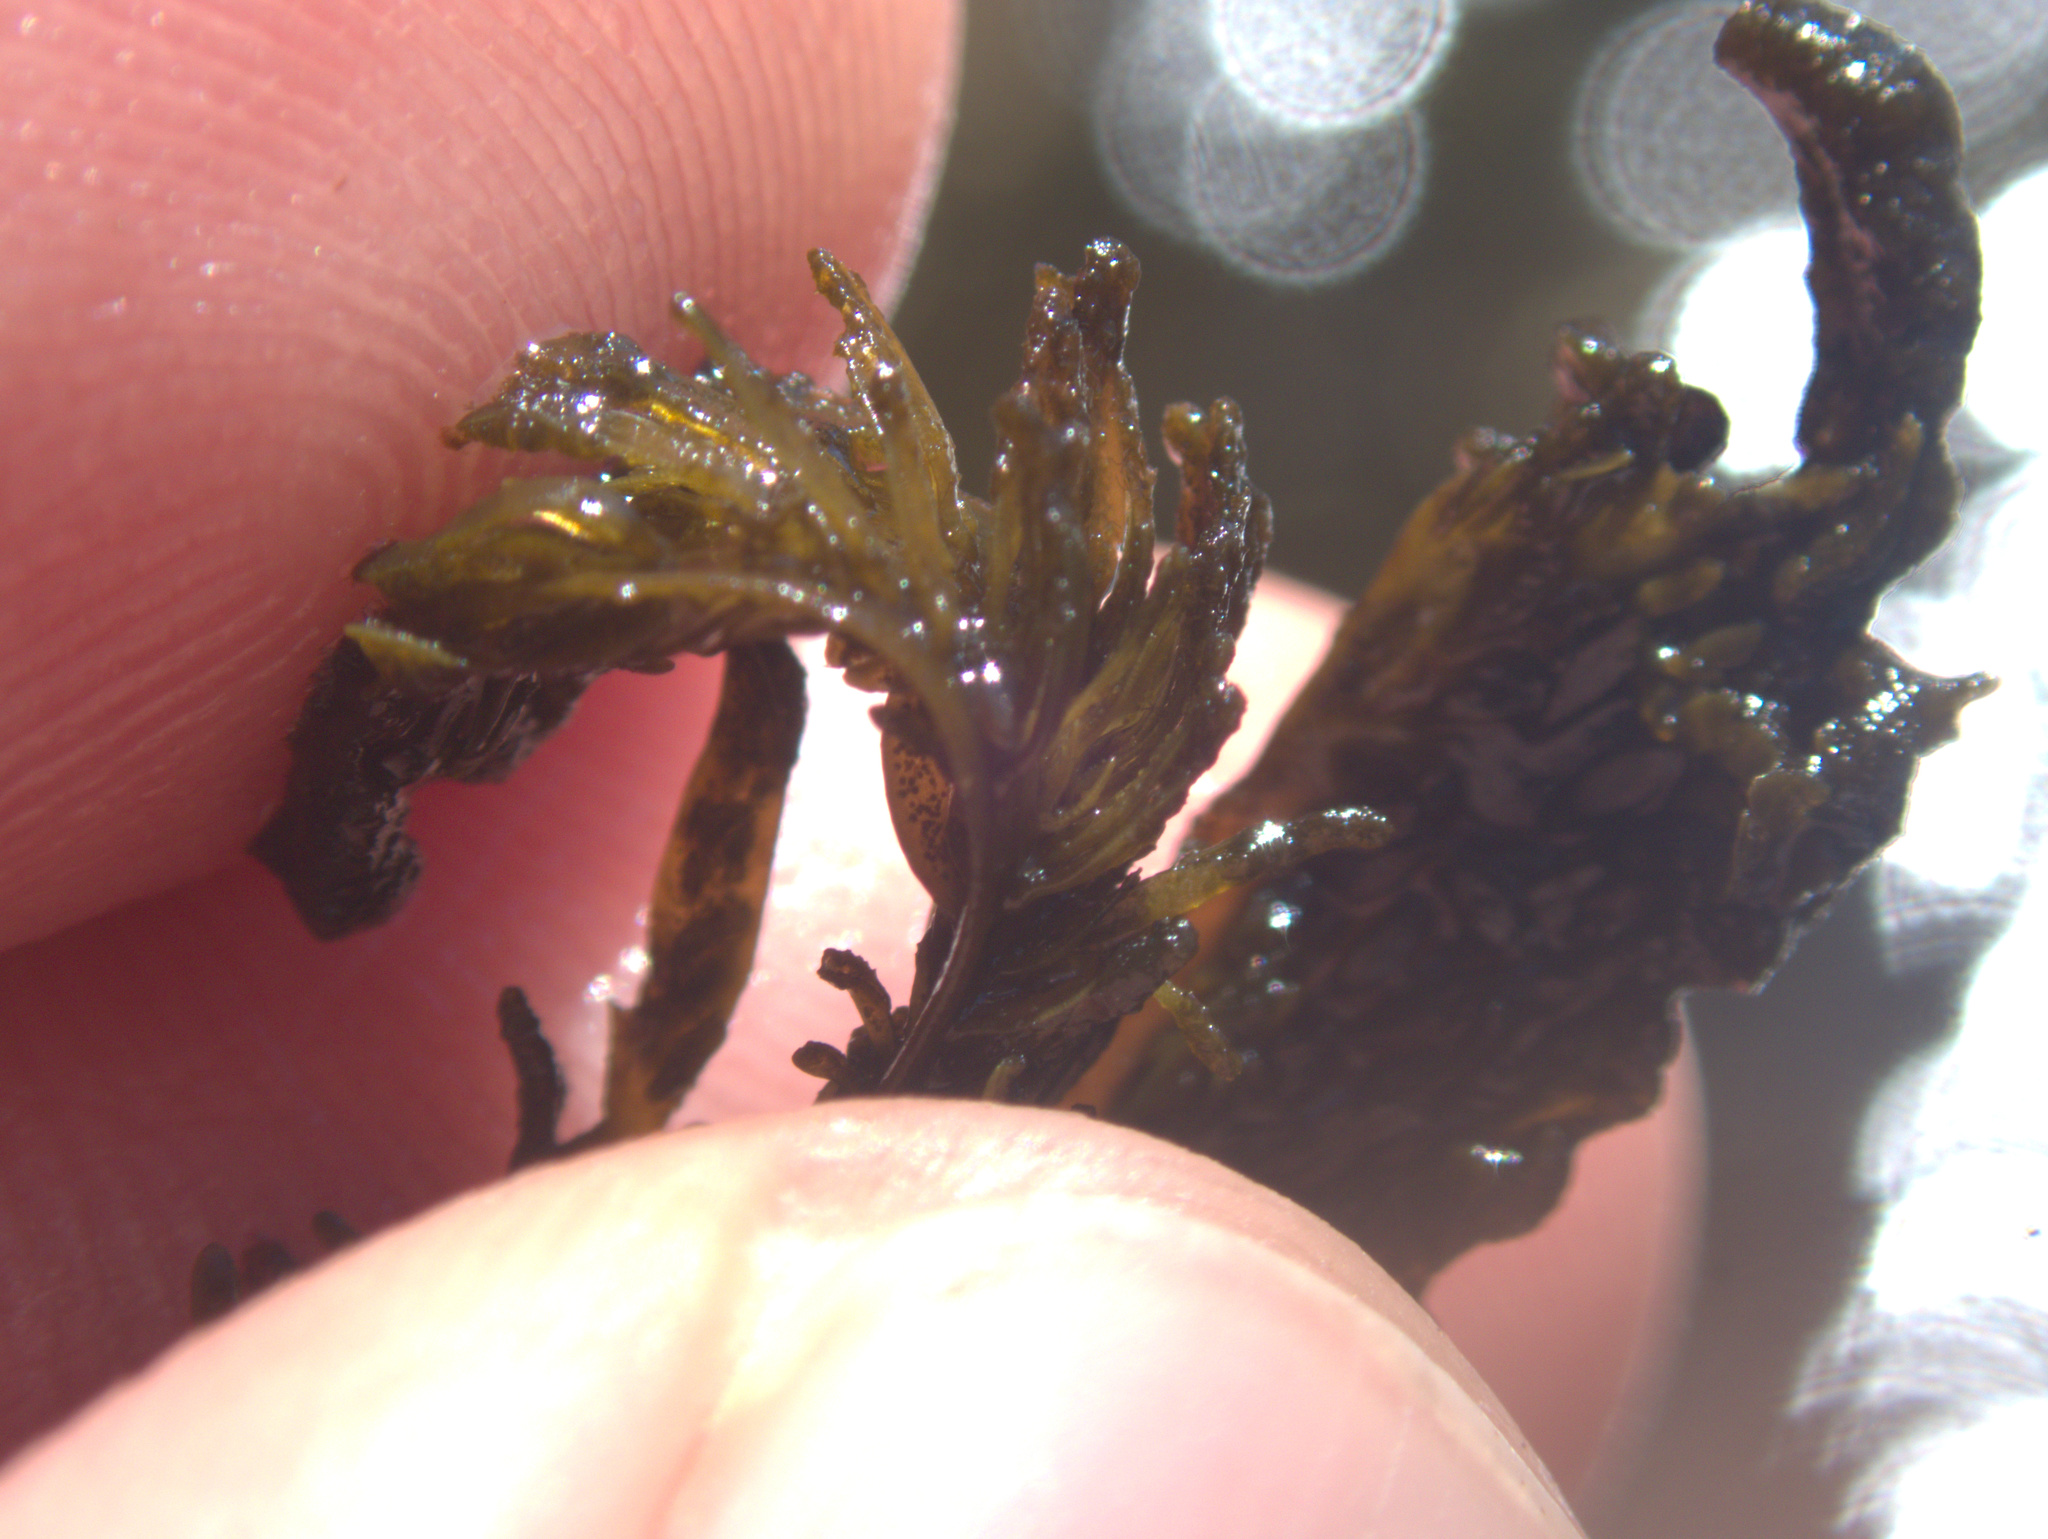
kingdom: Chromista
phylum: Ochrophyta
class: Phaeophyceae
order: Dictyotales
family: Dictyotaceae
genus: Dictyota
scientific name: Dictyota kunthii
